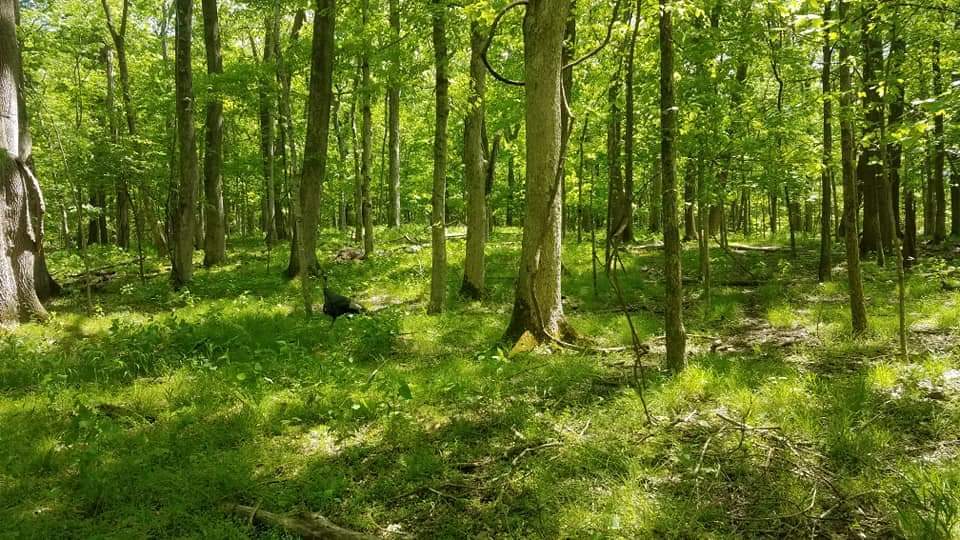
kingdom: Animalia
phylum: Chordata
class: Aves
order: Galliformes
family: Phasianidae
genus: Meleagris
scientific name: Meleagris gallopavo
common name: Wild turkey
